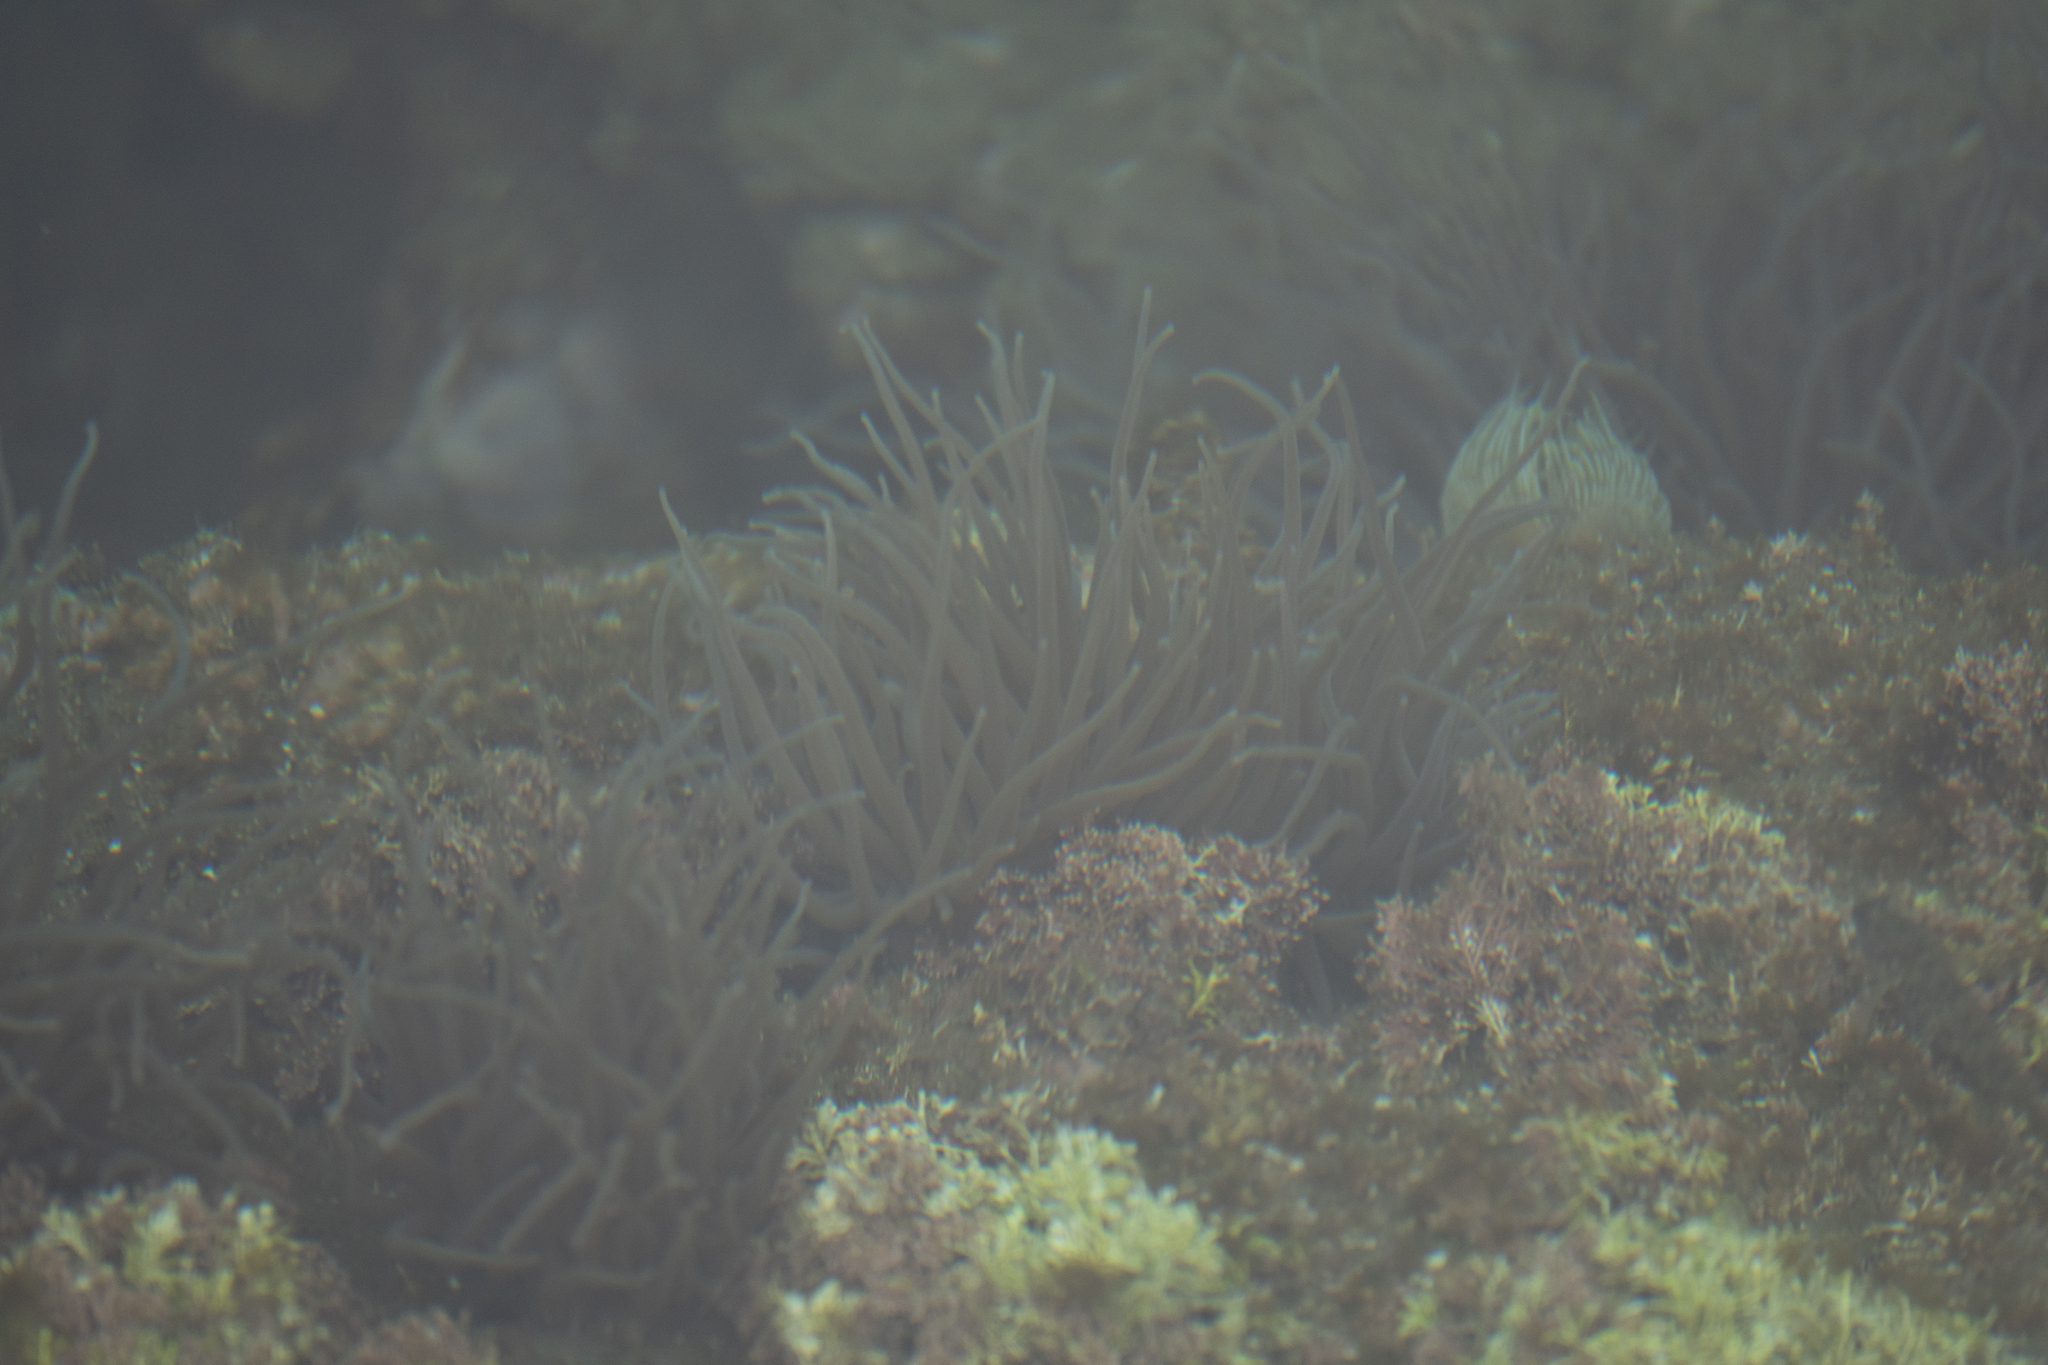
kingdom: Animalia
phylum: Cnidaria
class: Anthozoa
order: Actiniaria
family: Actiniidae
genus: Anemonia
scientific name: Anemonia viridis
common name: Snakelocks anemone
